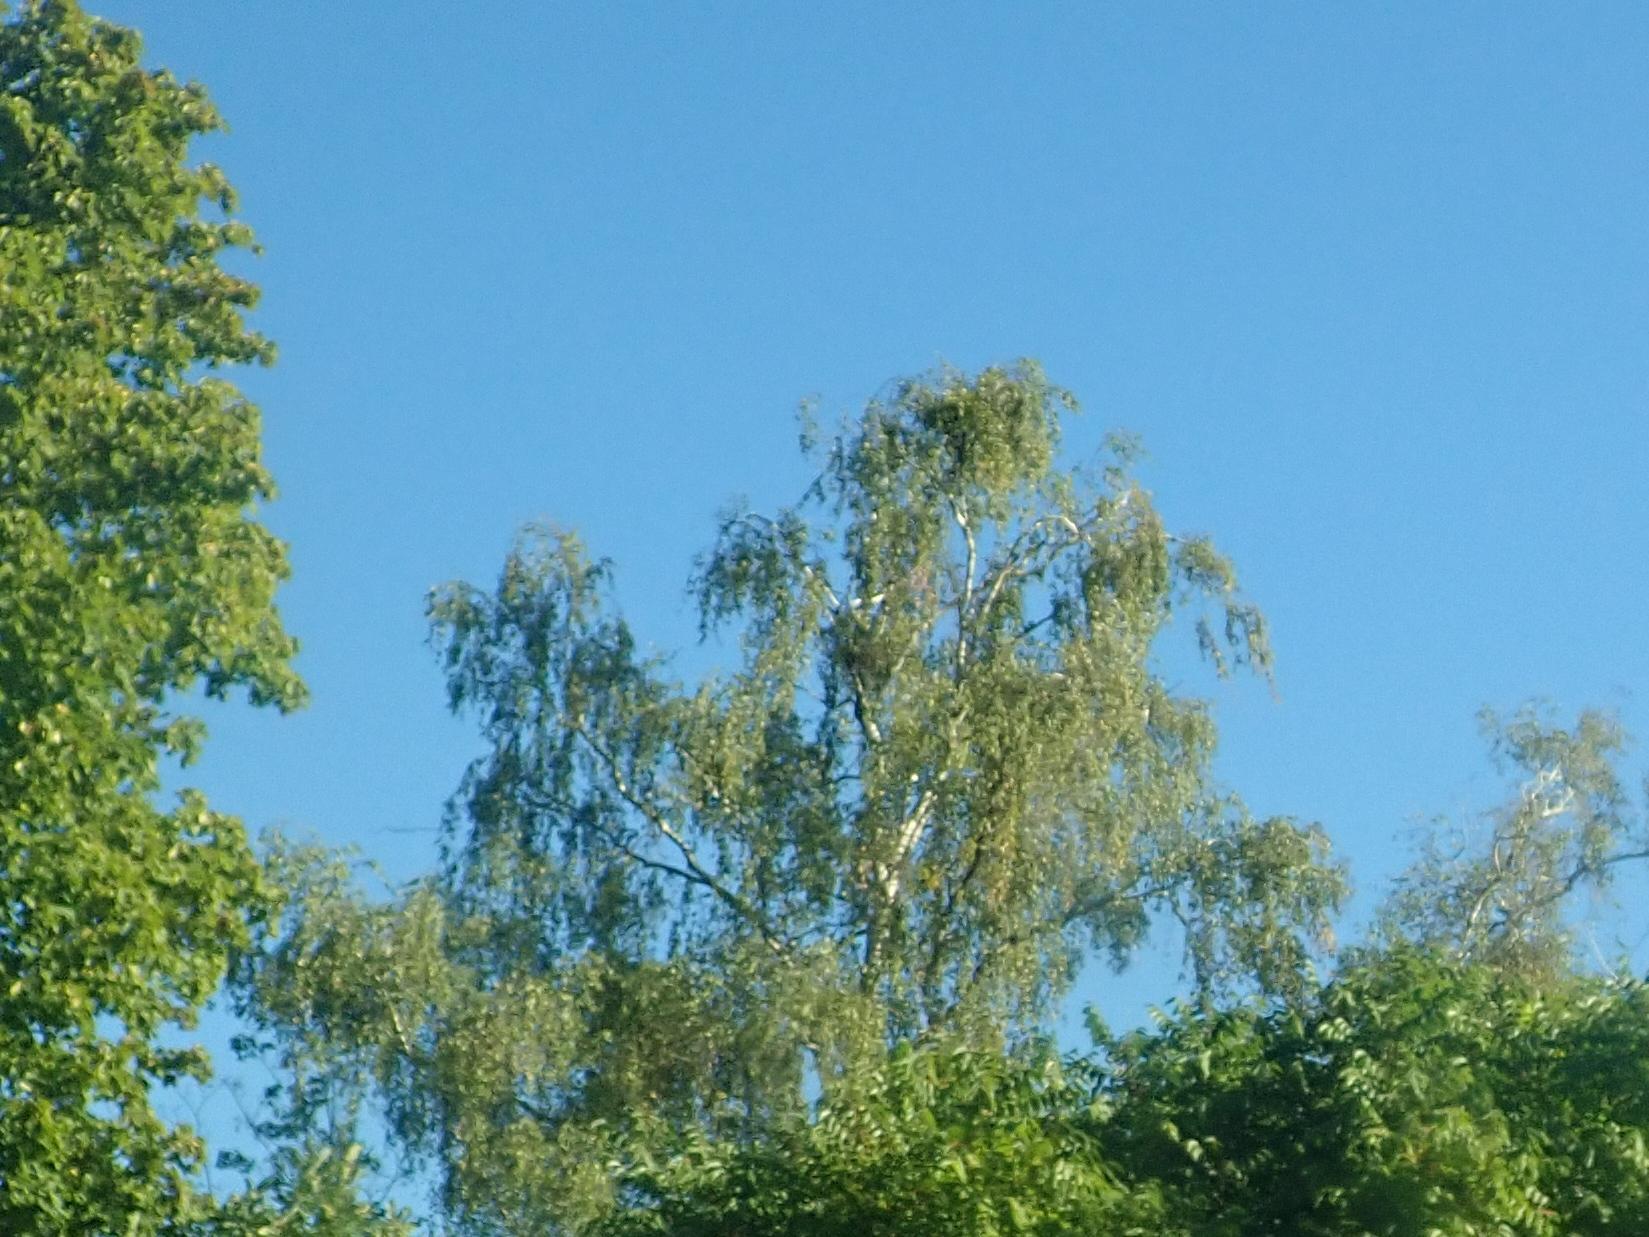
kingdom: Plantae
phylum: Tracheophyta
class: Magnoliopsida
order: Fagales
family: Betulaceae
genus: Betula
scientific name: Betula pendula
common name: Silver birch
